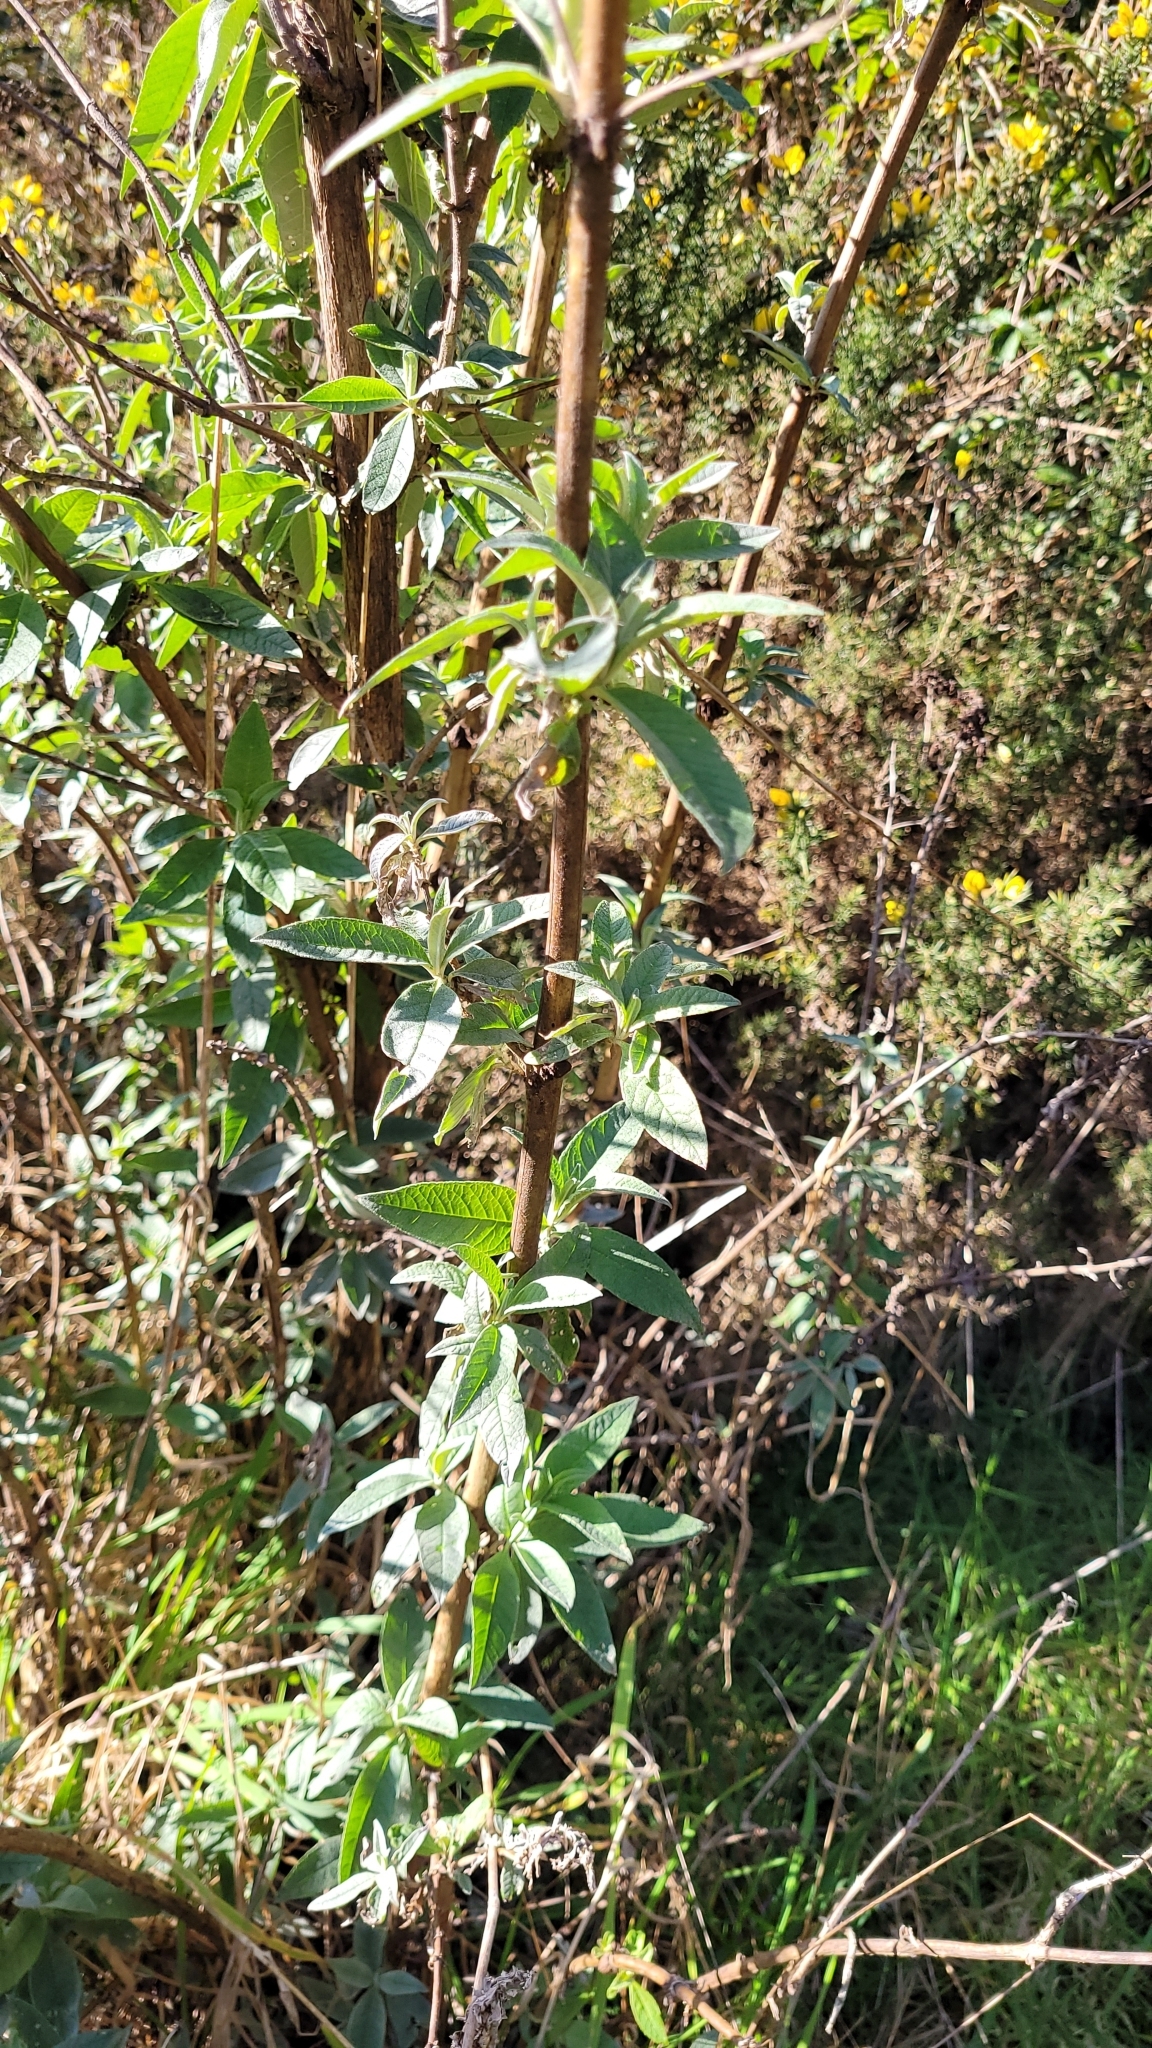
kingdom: Plantae
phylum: Tracheophyta
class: Magnoliopsida
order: Lamiales
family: Scrophulariaceae
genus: Buddleja
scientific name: Buddleja davidii
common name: Butterfly-bush
